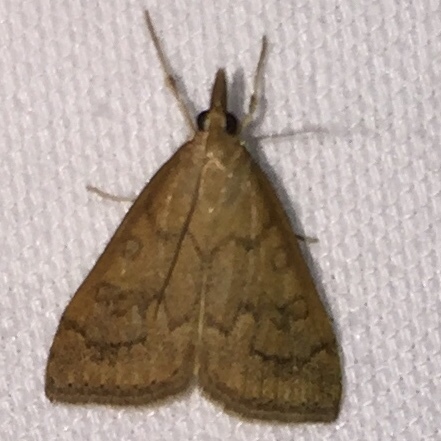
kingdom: Animalia
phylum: Arthropoda
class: Insecta
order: Lepidoptera
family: Crambidae
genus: Udea
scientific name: Udea rubigalis
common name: Celery leaftier moth
